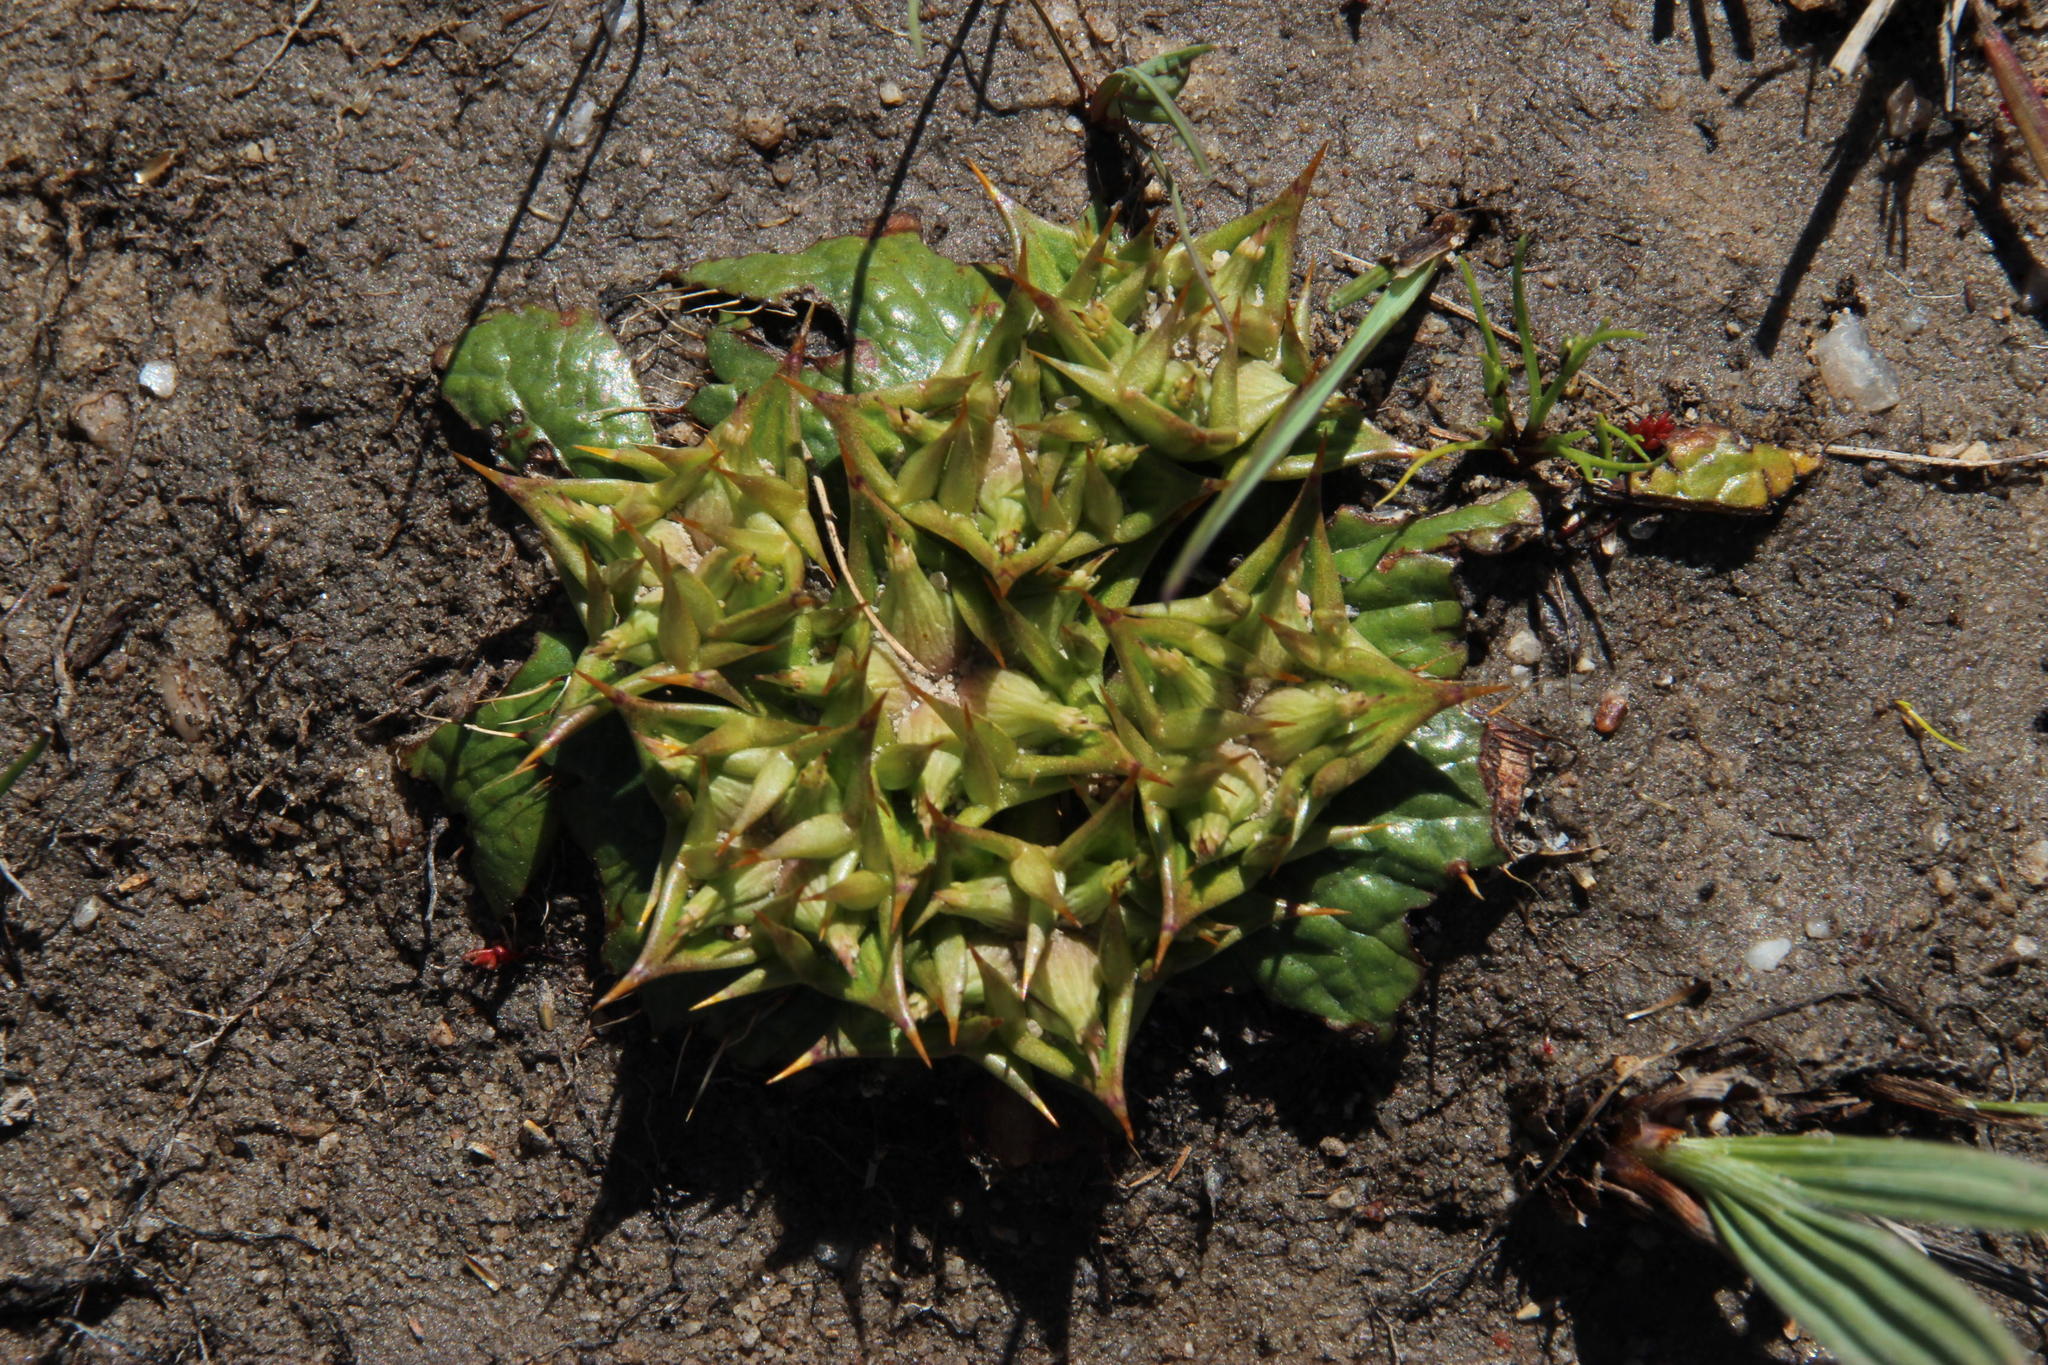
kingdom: Plantae
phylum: Tracheophyta
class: Magnoliopsida
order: Apiales
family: Apiaceae
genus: Arctopus
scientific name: Arctopus echinatus
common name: Platdoring
